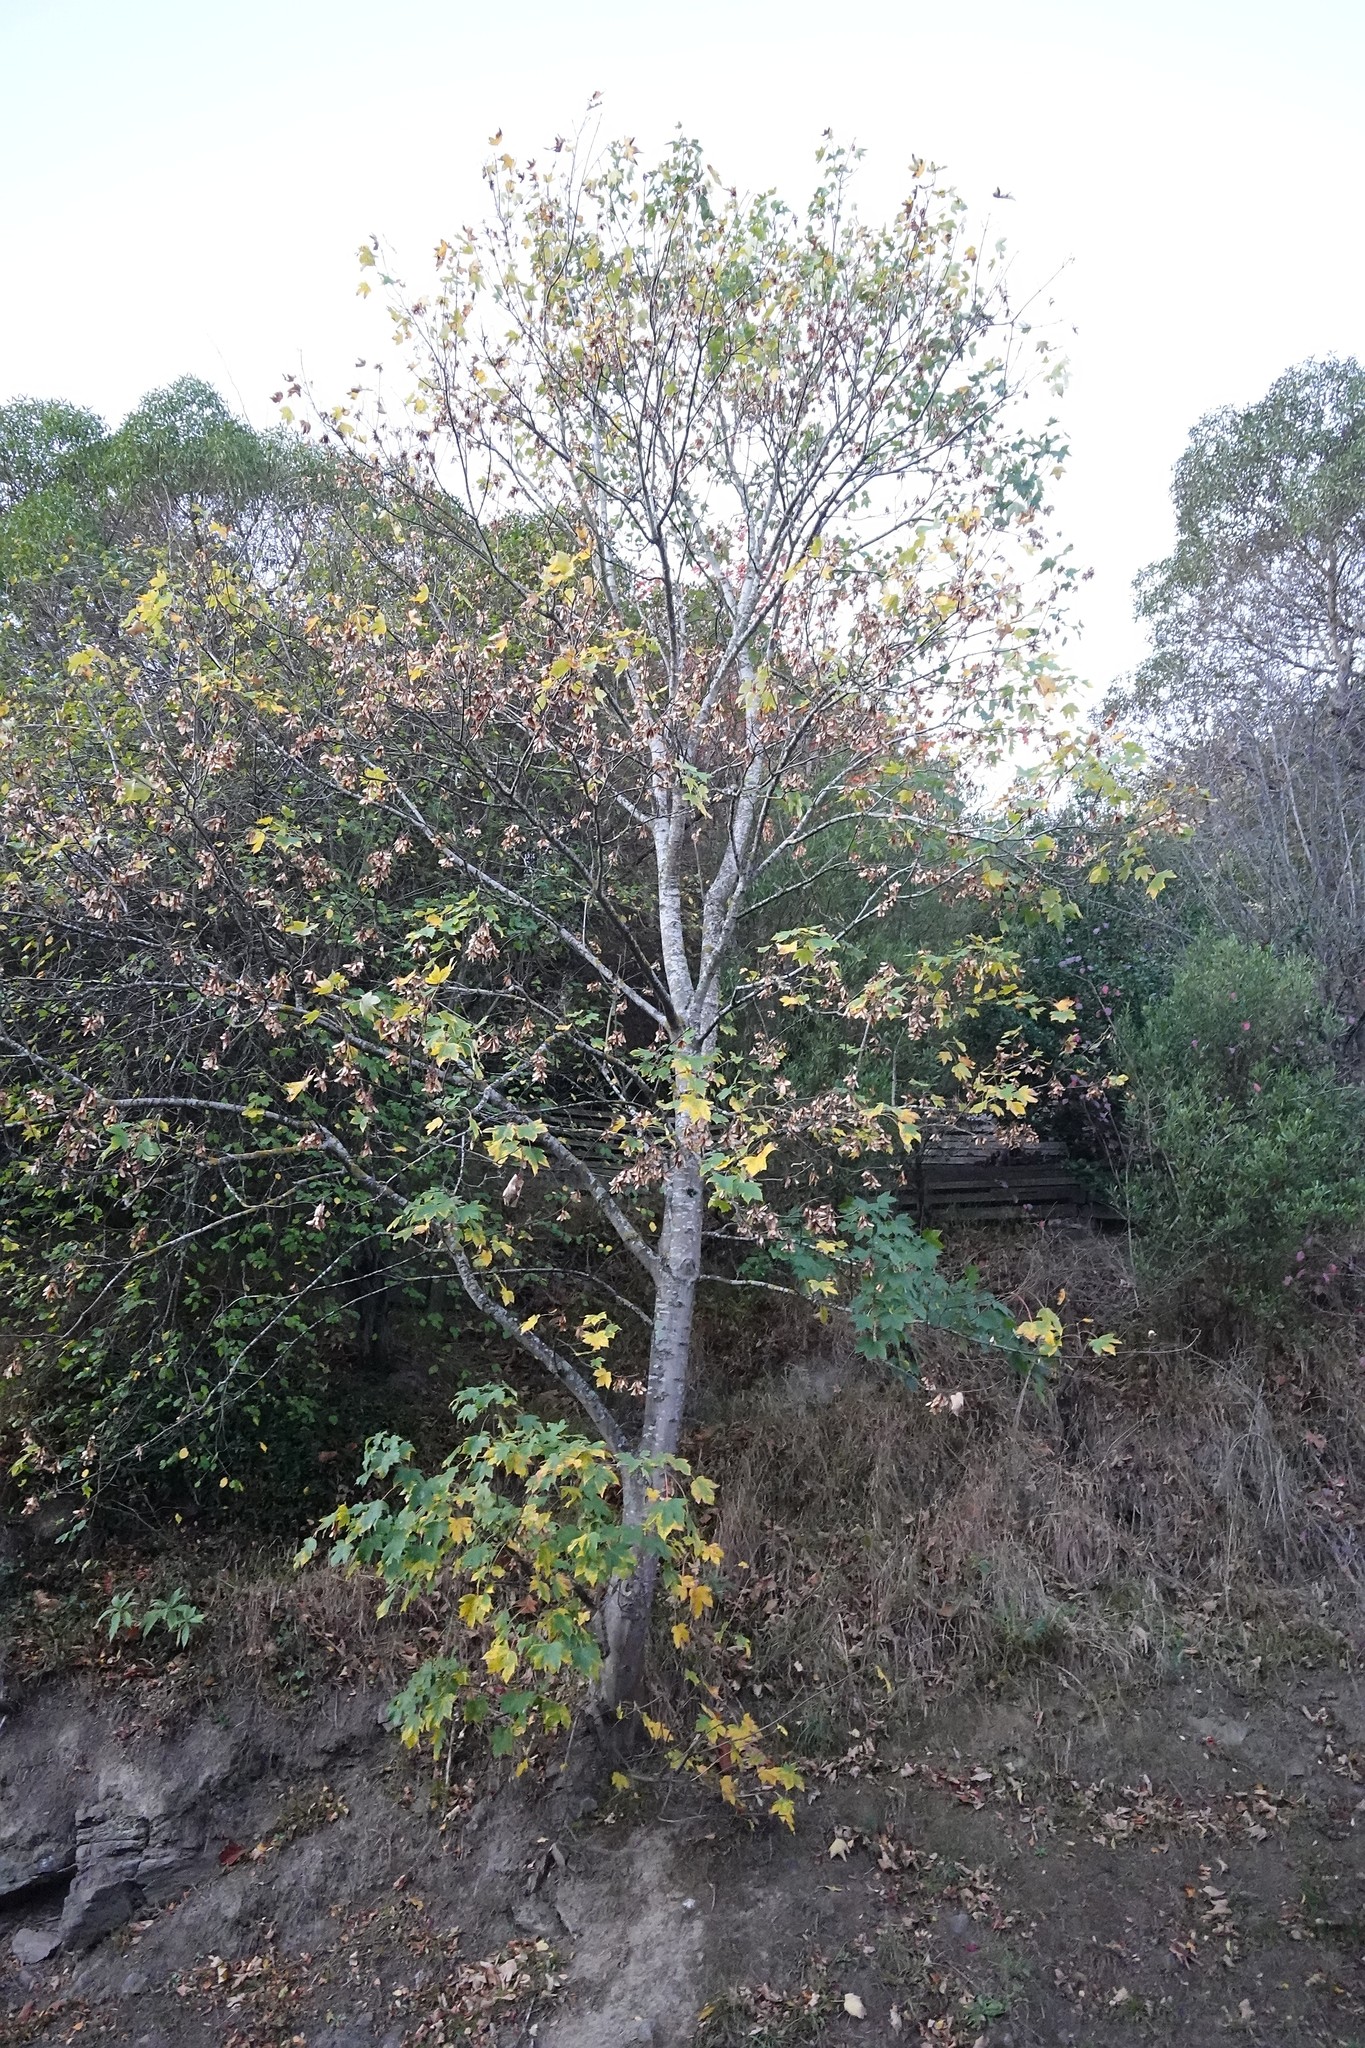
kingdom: Plantae
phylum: Tracheophyta
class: Magnoliopsida
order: Sapindales
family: Sapindaceae
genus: Acer
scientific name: Acer pseudoplatanus
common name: Sycamore
